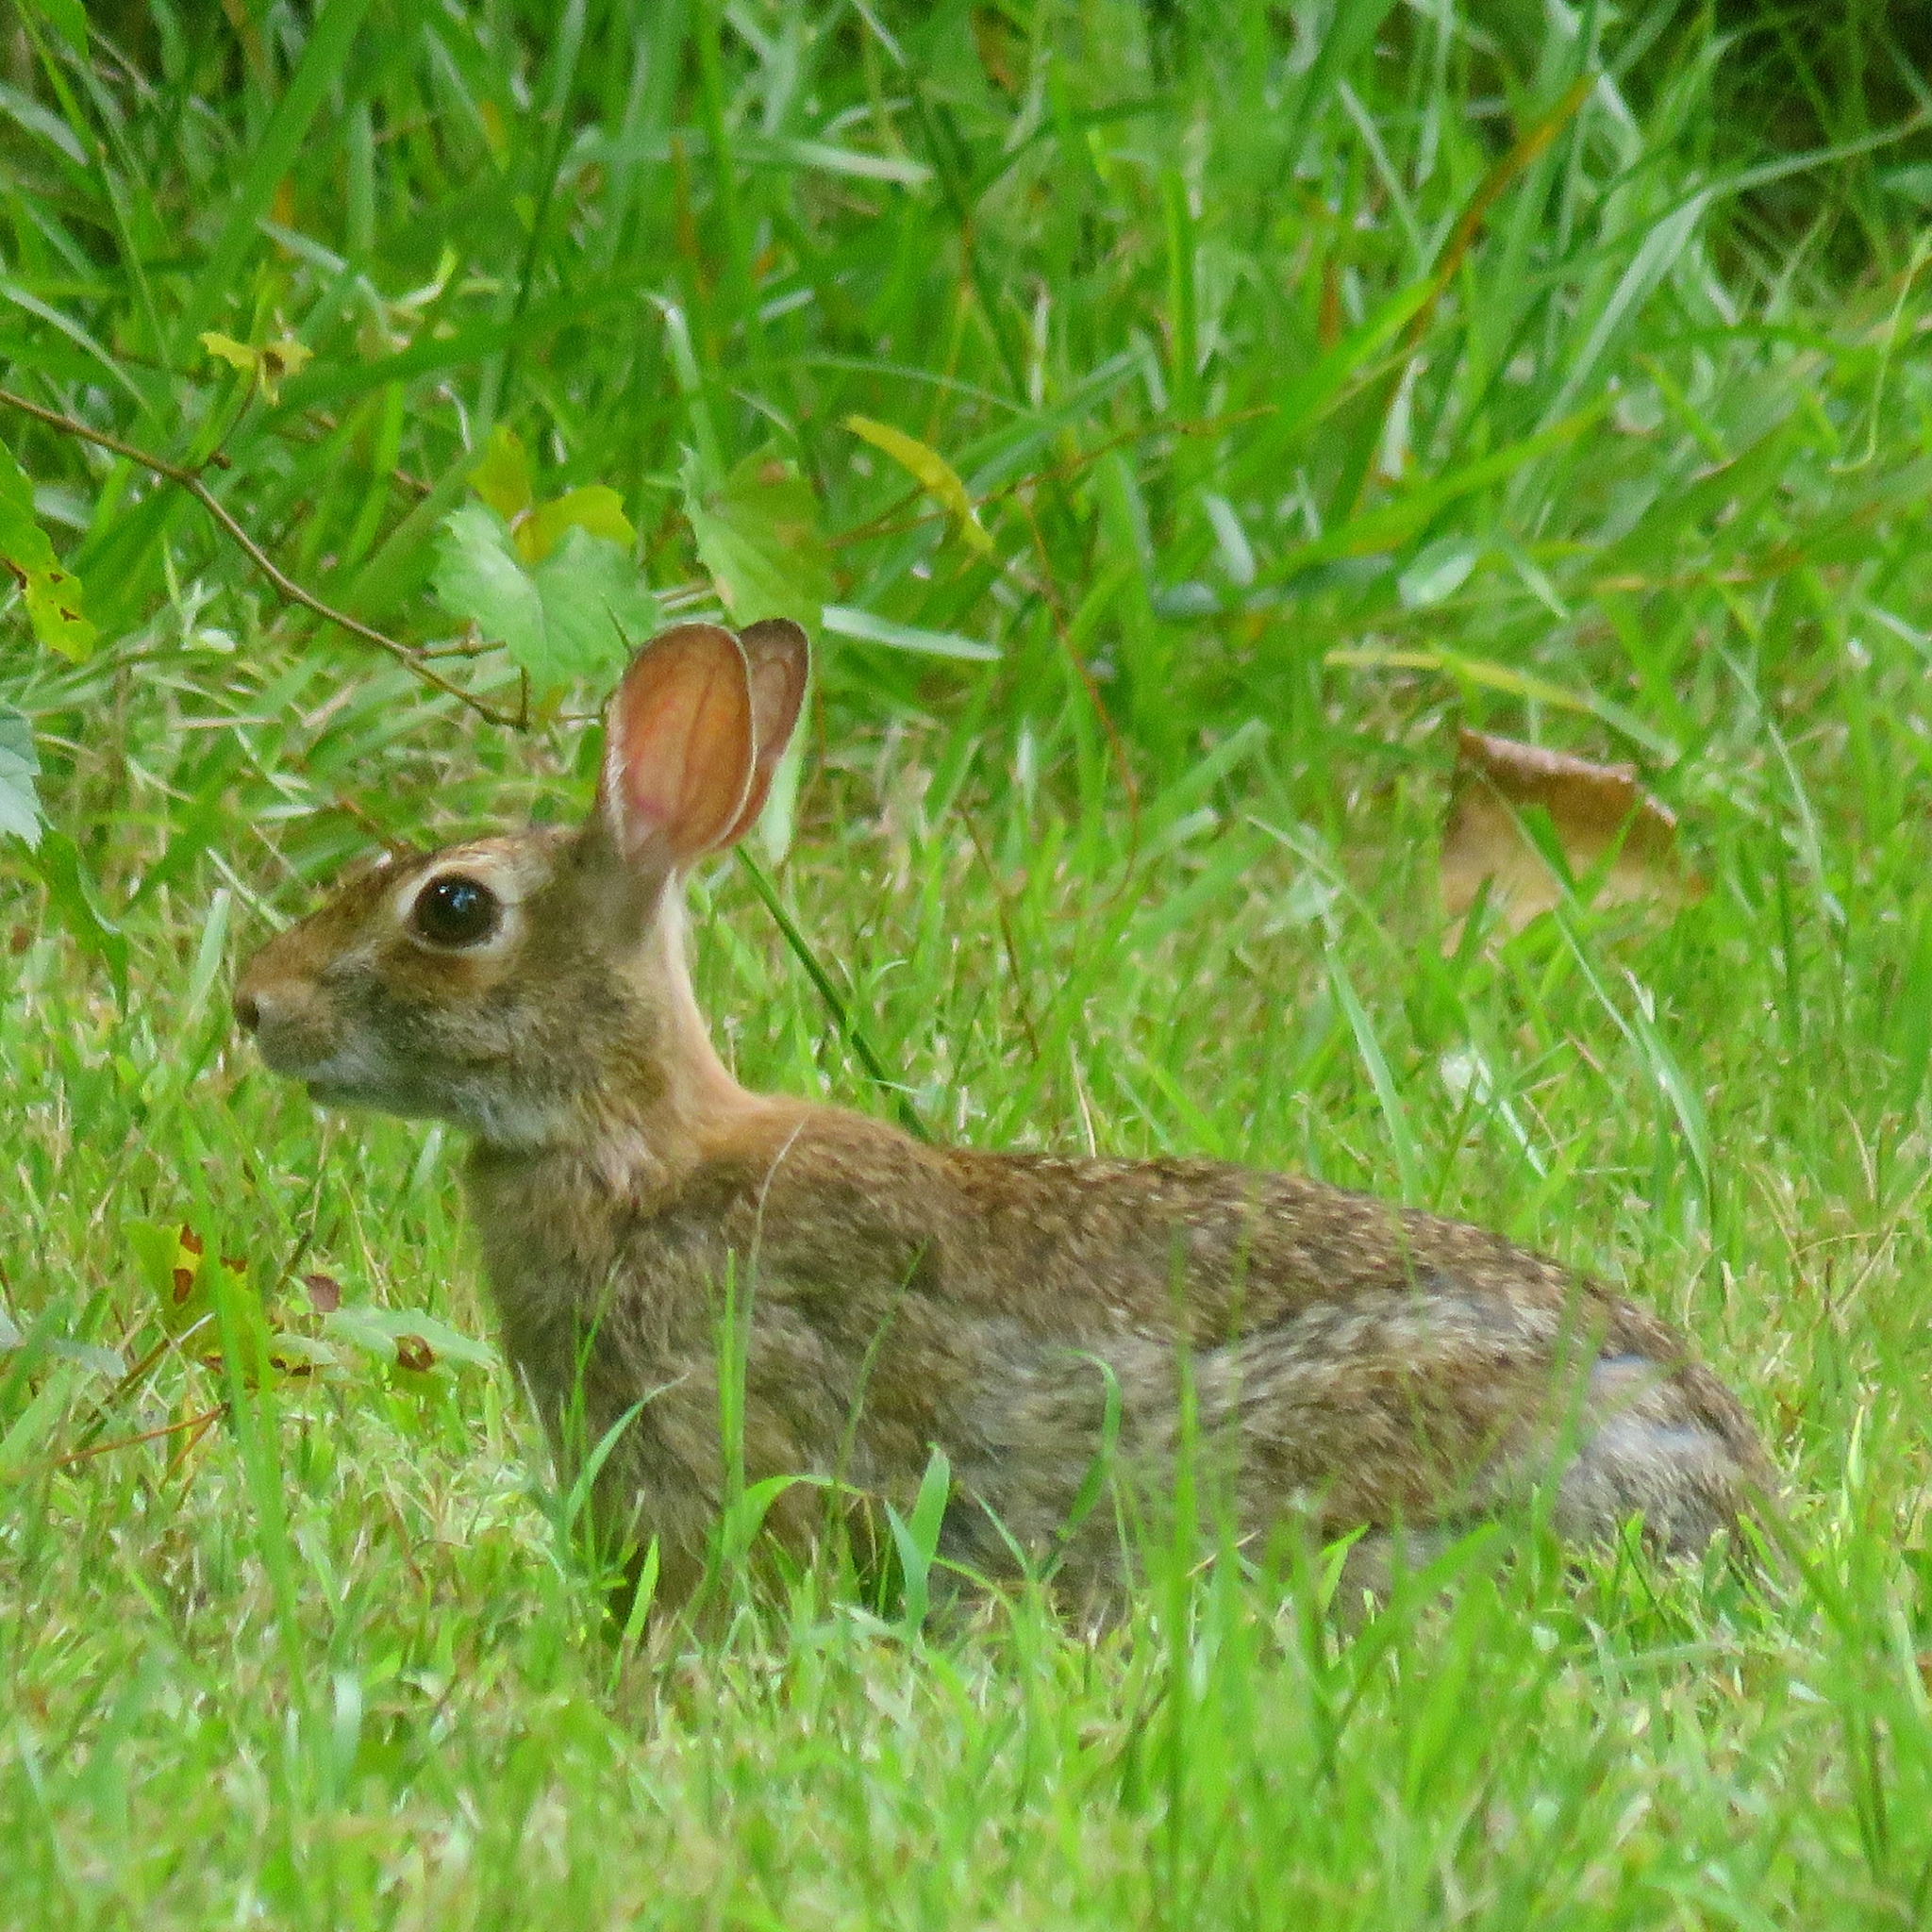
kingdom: Animalia
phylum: Chordata
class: Mammalia
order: Lagomorpha
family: Leporidae
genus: Sylvilagus
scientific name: Sylvilagus floridanus
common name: Eastern cottontail
